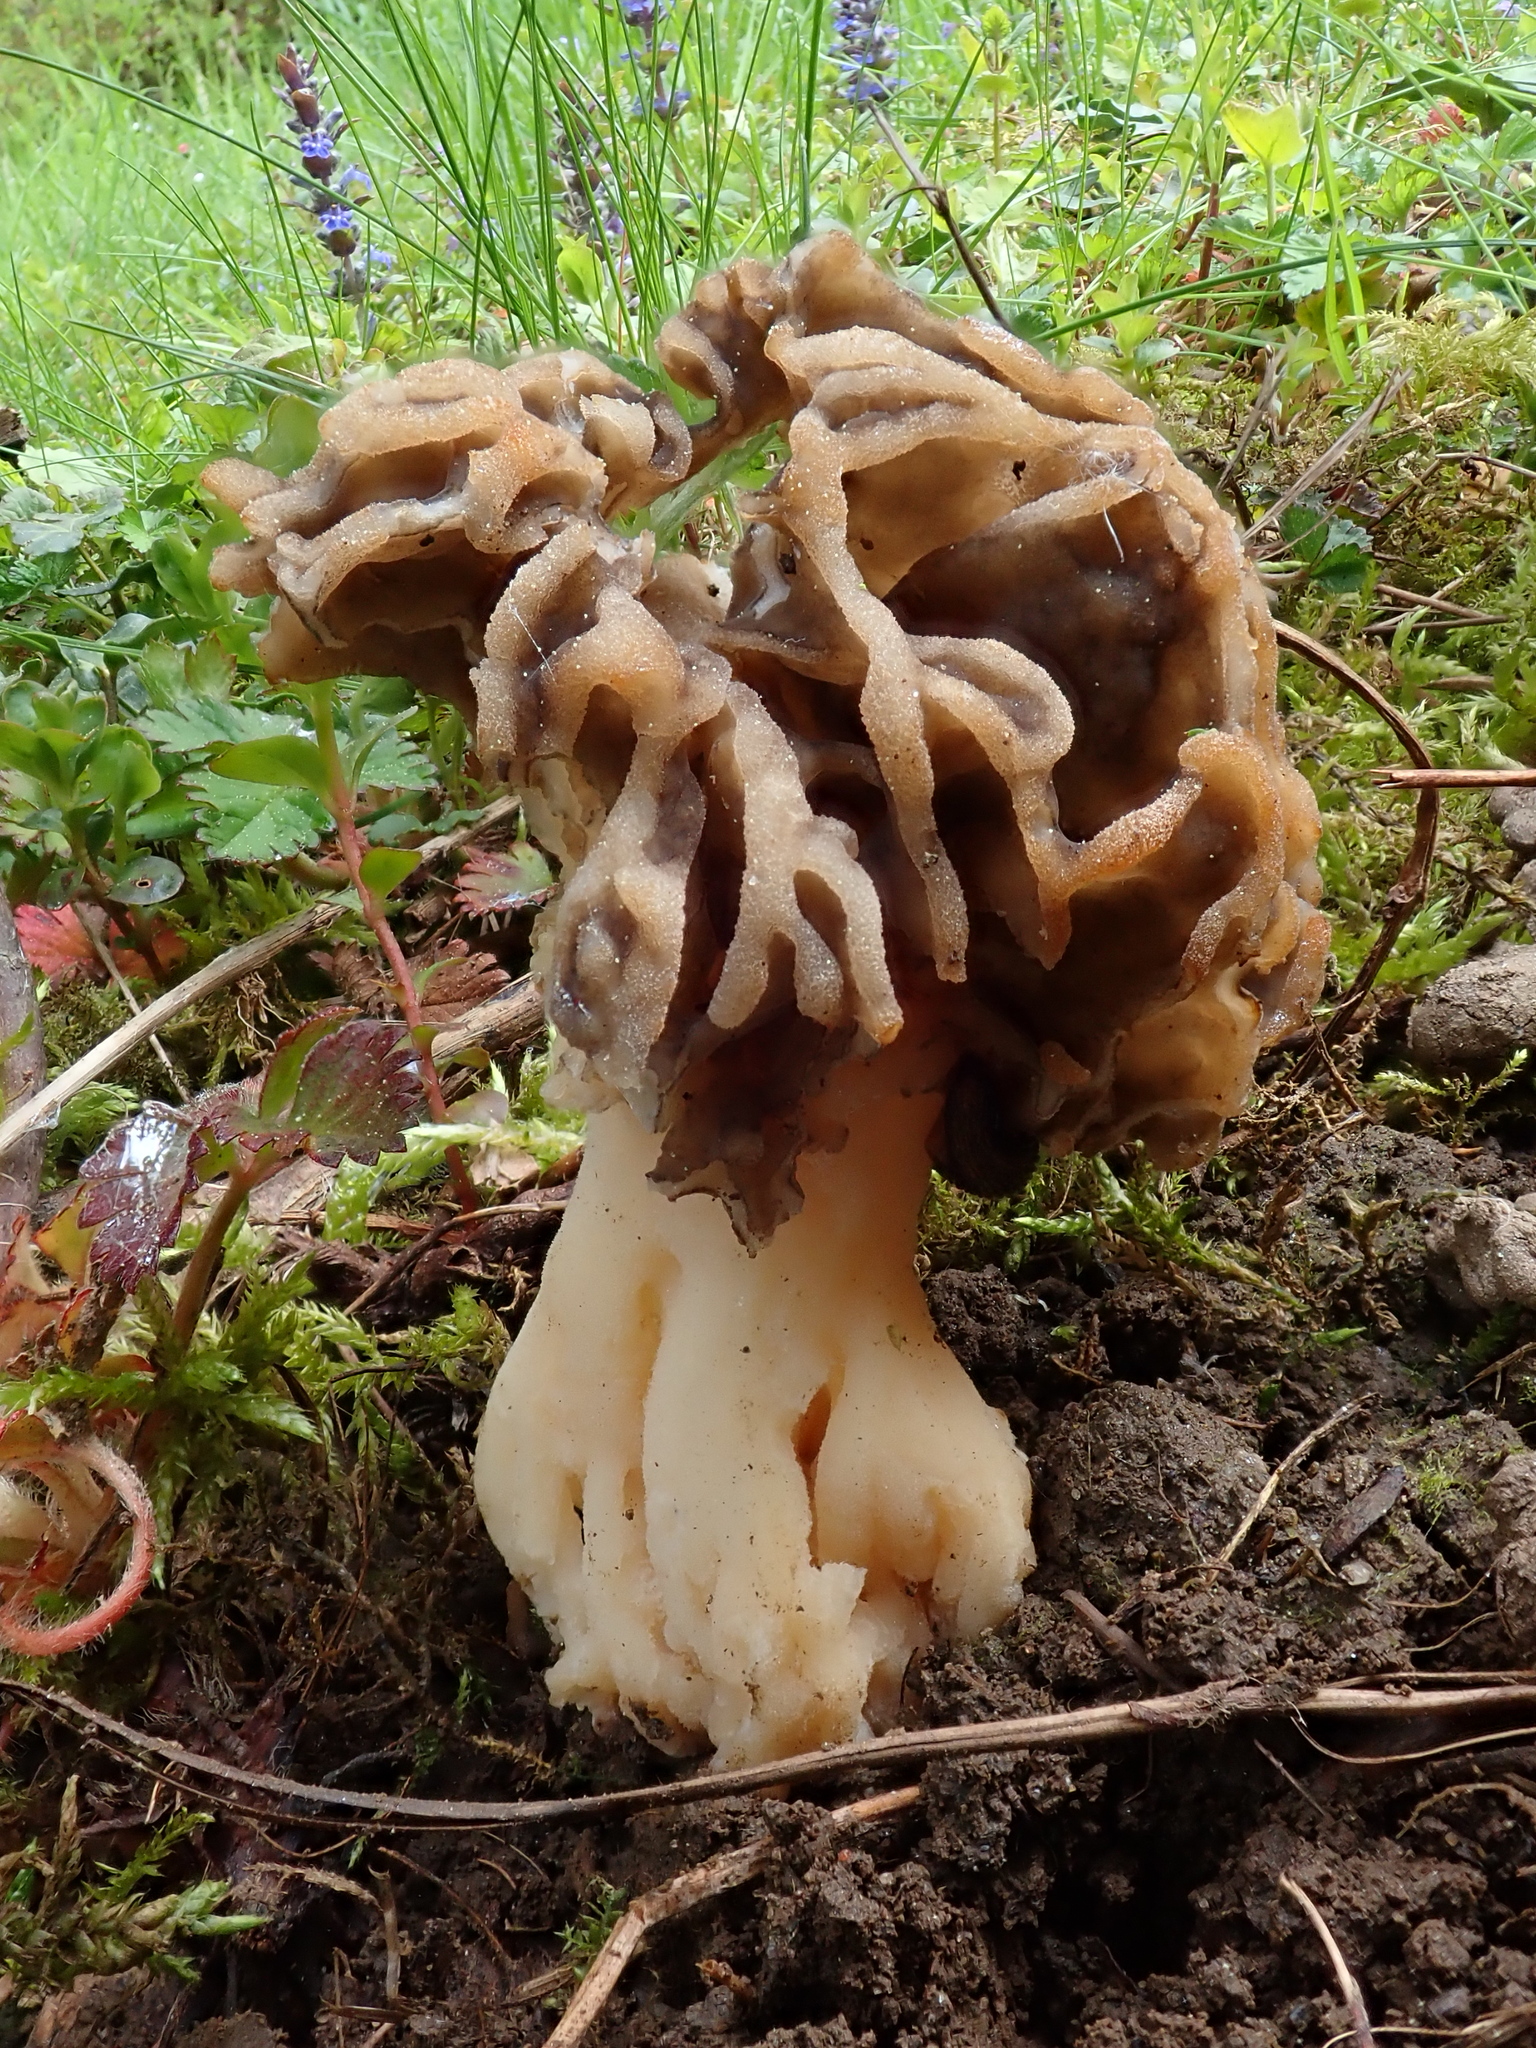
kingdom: Fungi
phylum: Ascomycota
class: Pezizomycetes
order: Pezizales
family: Morchellaceae
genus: Morchella
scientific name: Morchella
